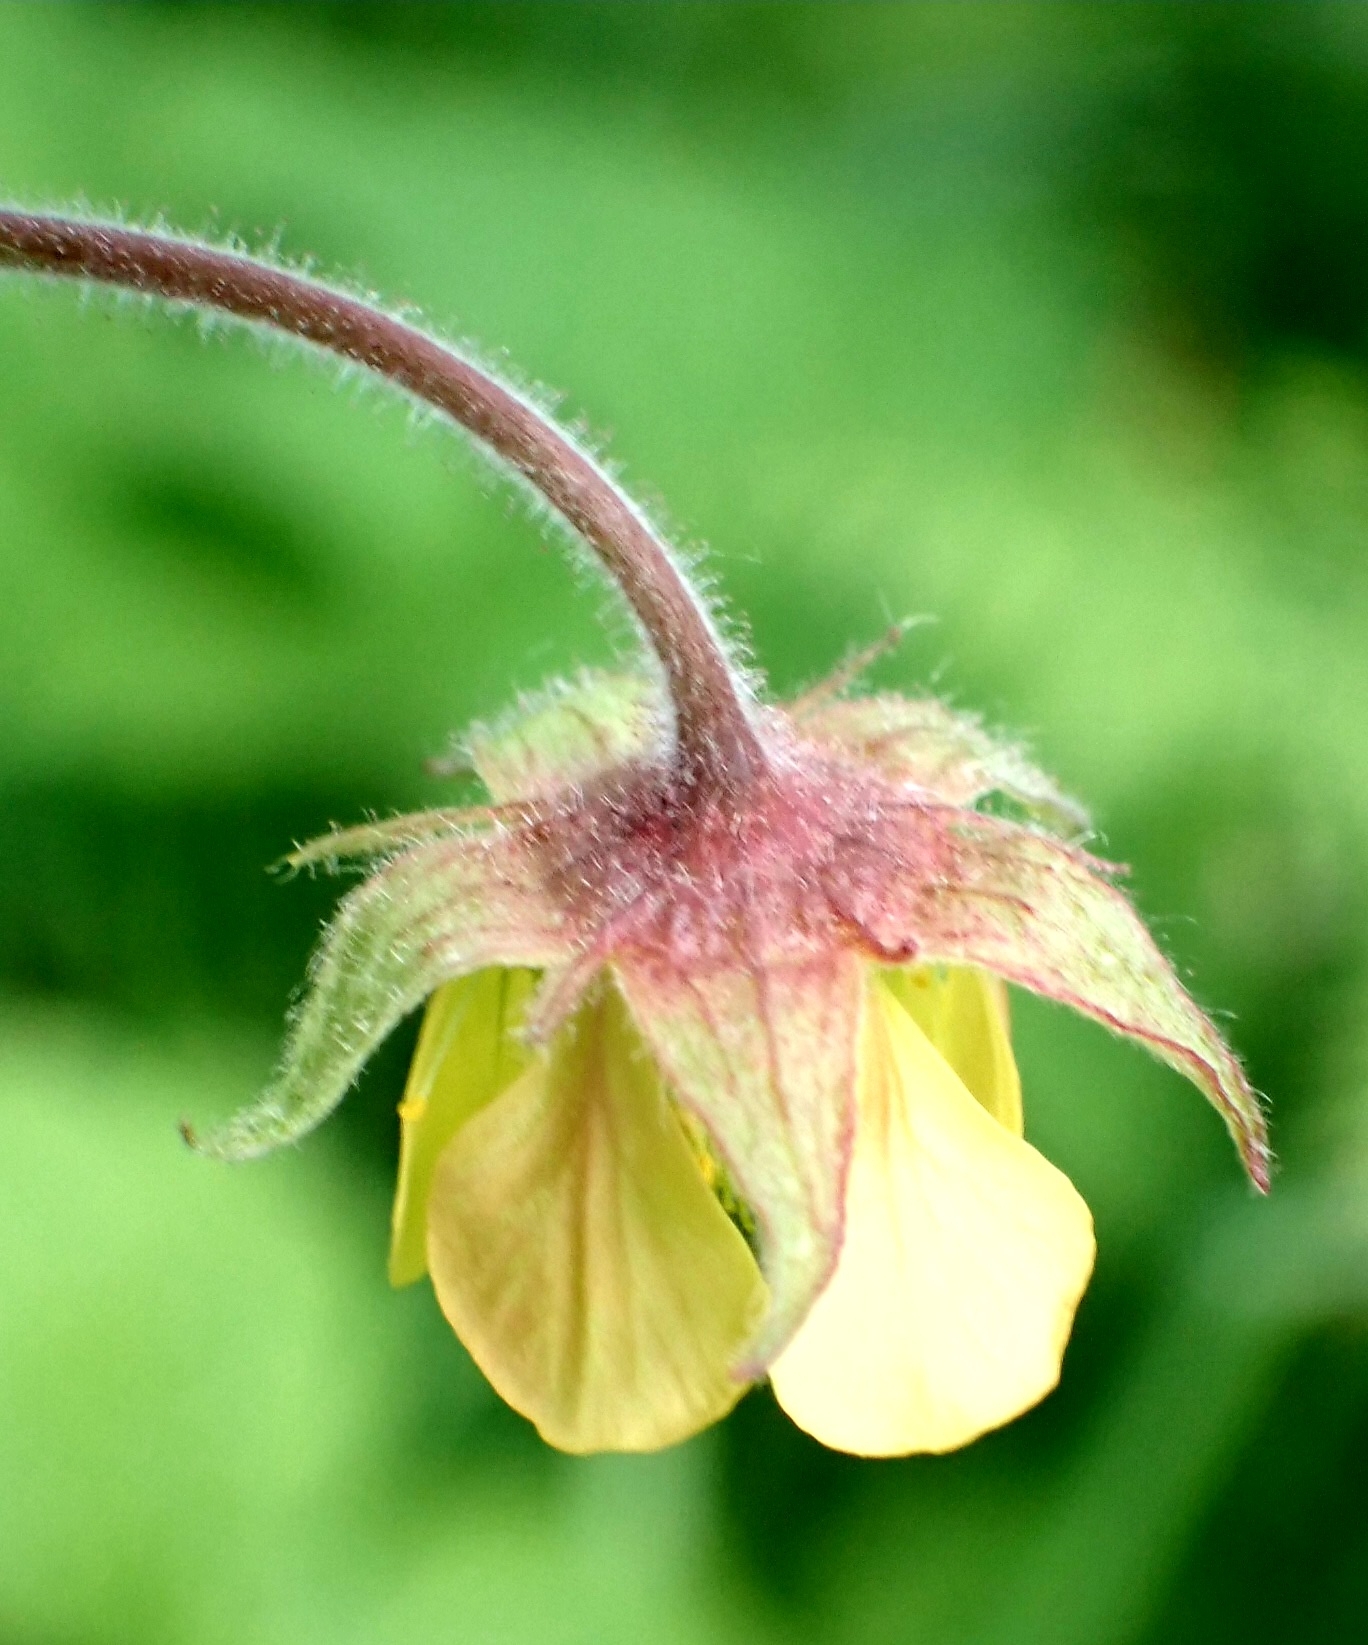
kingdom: Plantae
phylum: Tracheophyta
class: Magnoliopsida
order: Rosales
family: Rosaceae
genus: Geum
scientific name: Geum rivale
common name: Water avens
